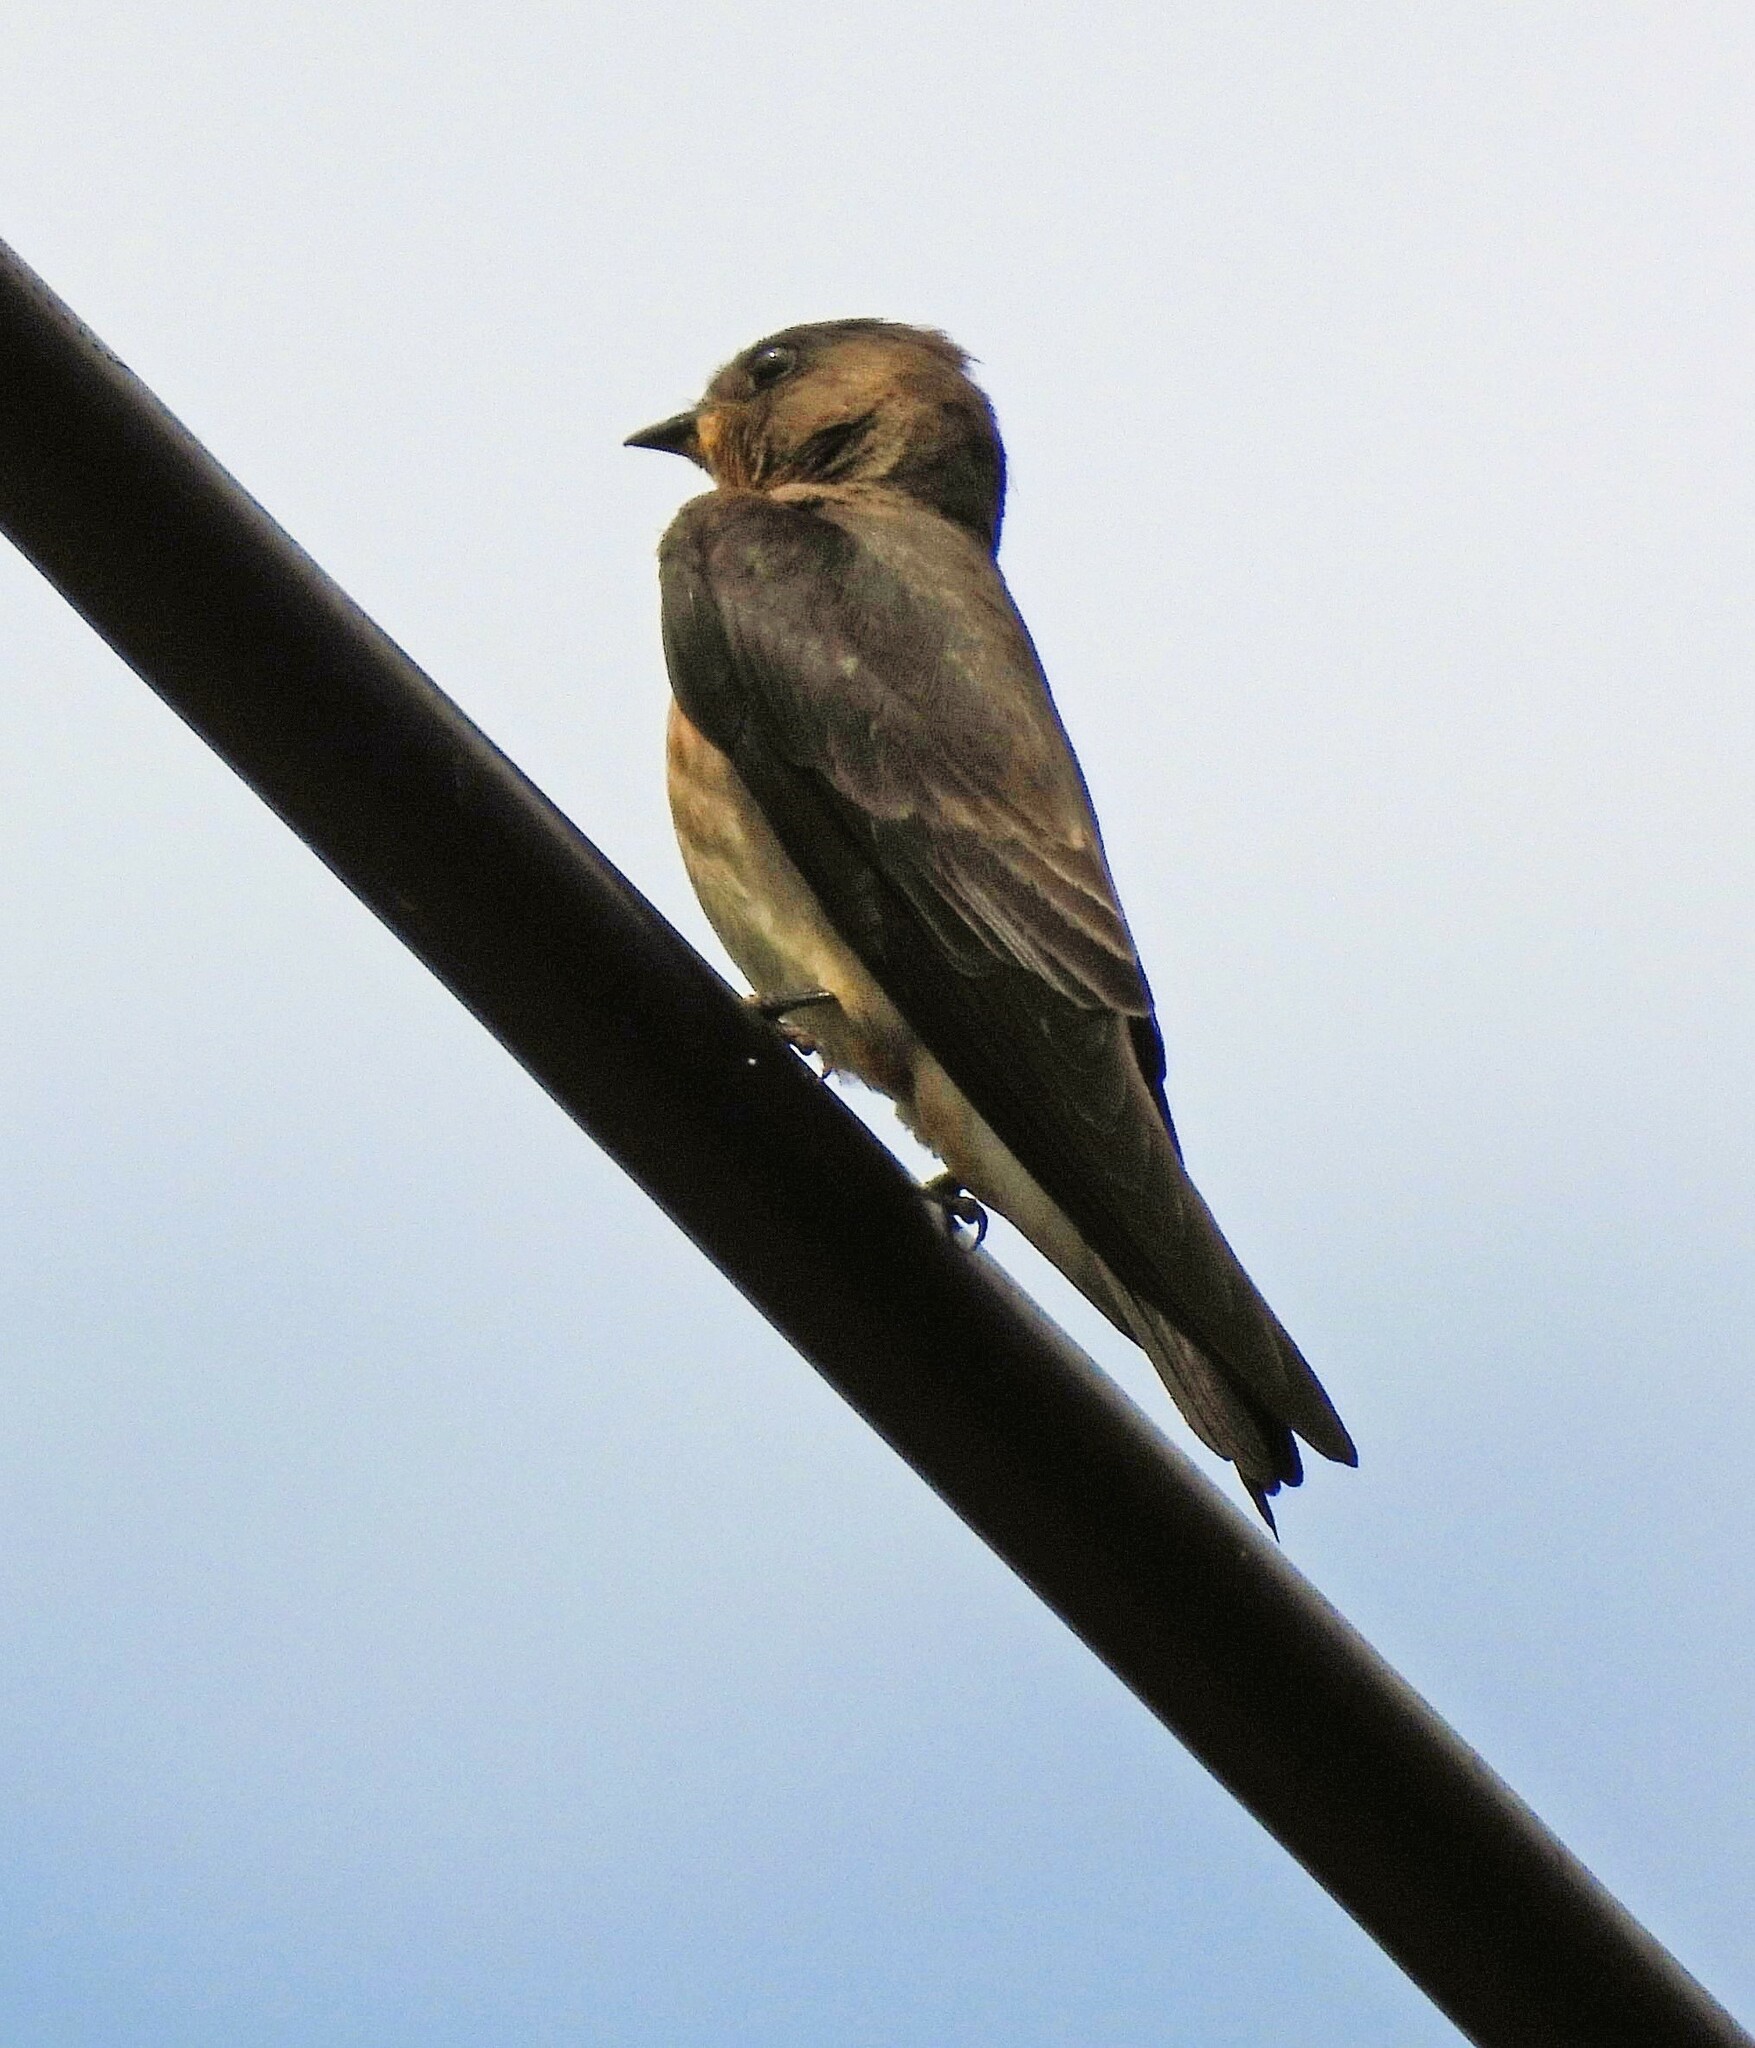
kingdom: Animalia
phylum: Chordata
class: Aves
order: Passeriformes
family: Hirundinidae
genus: Stelgidopteryx
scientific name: Stelgidopteryx ruficollis
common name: Southern rough-winged swallow
